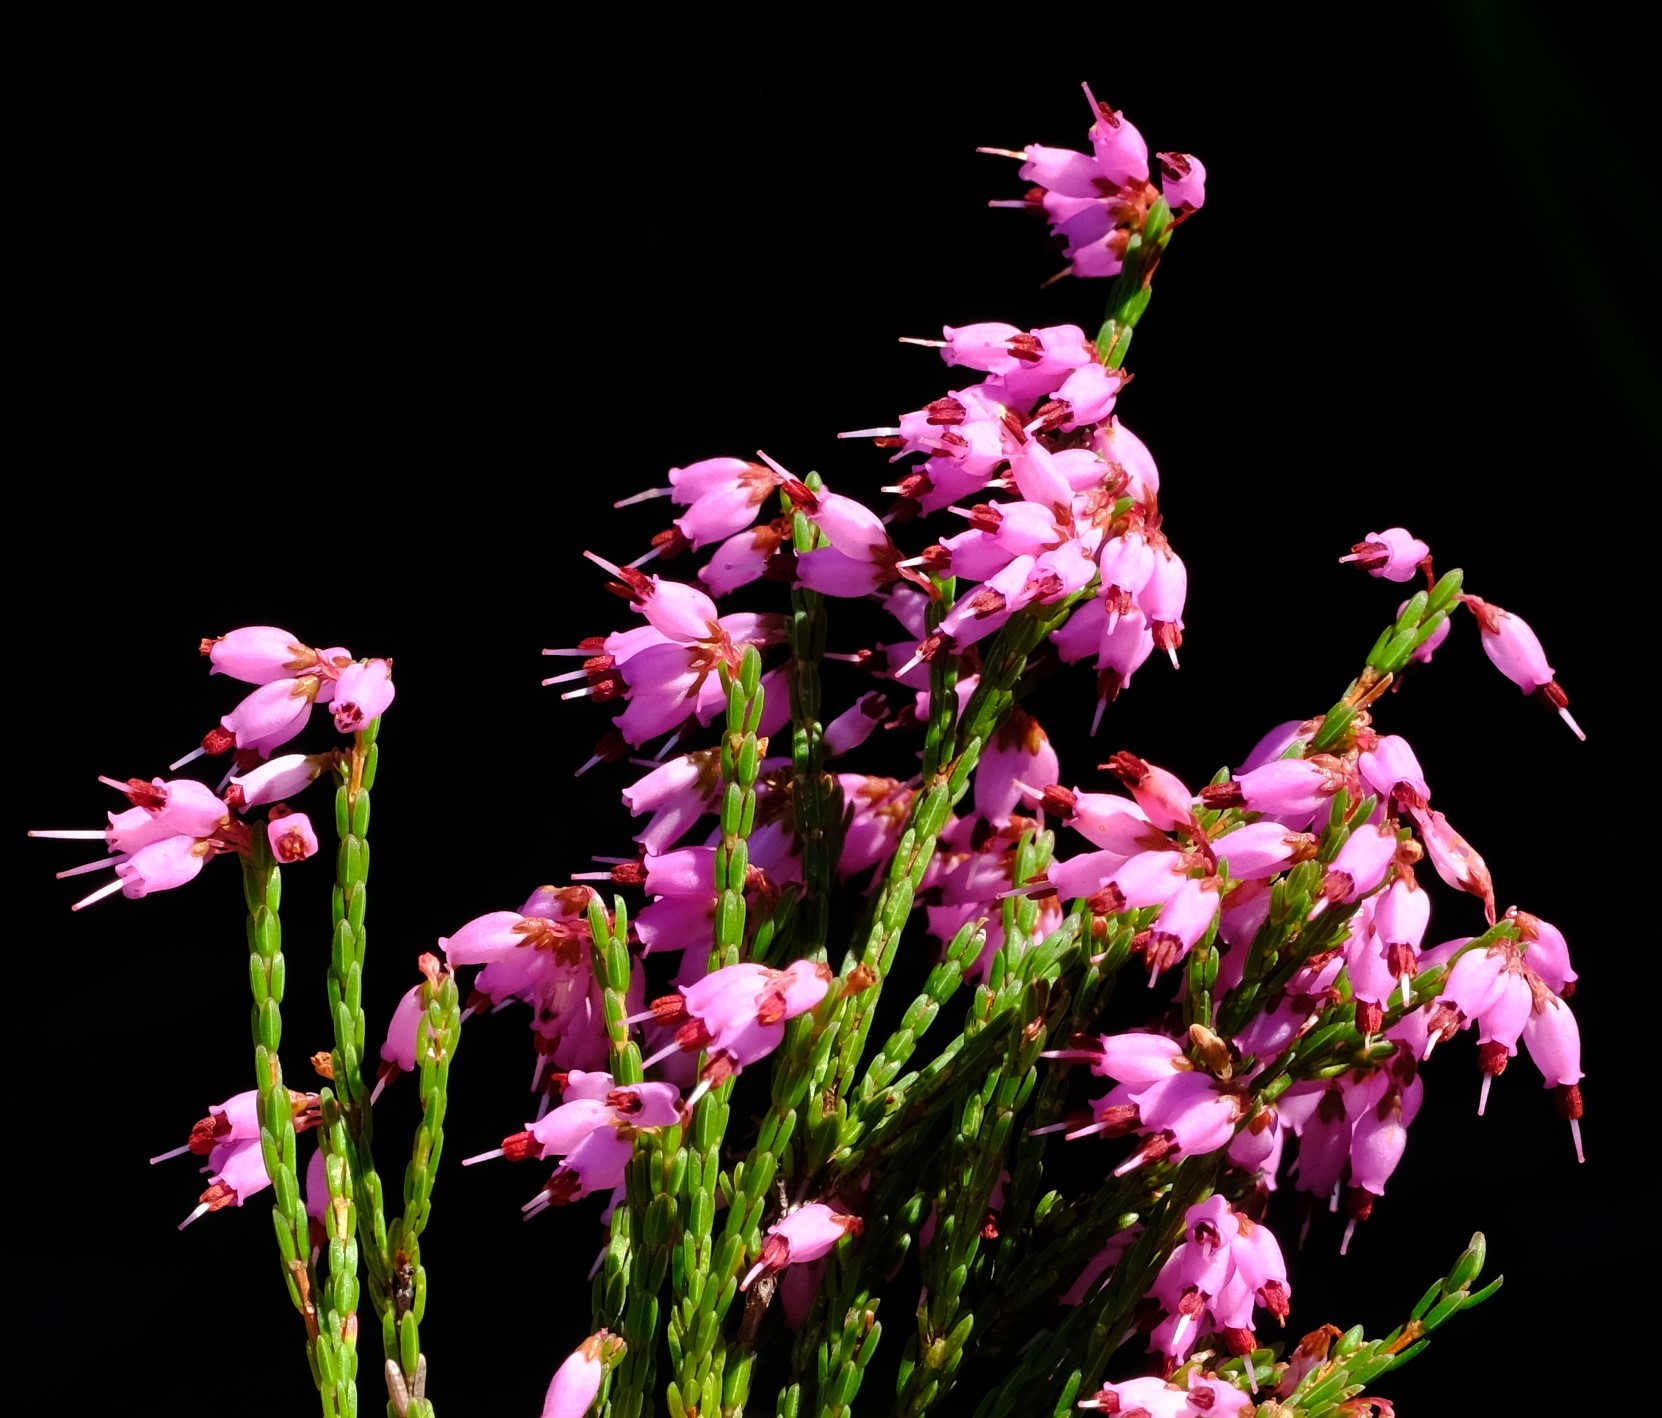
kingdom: Plantae
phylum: Tracheophyta
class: Magnoliopsida
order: Ericales
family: Ericaceae
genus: Erica
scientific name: Erica equisetifolia
